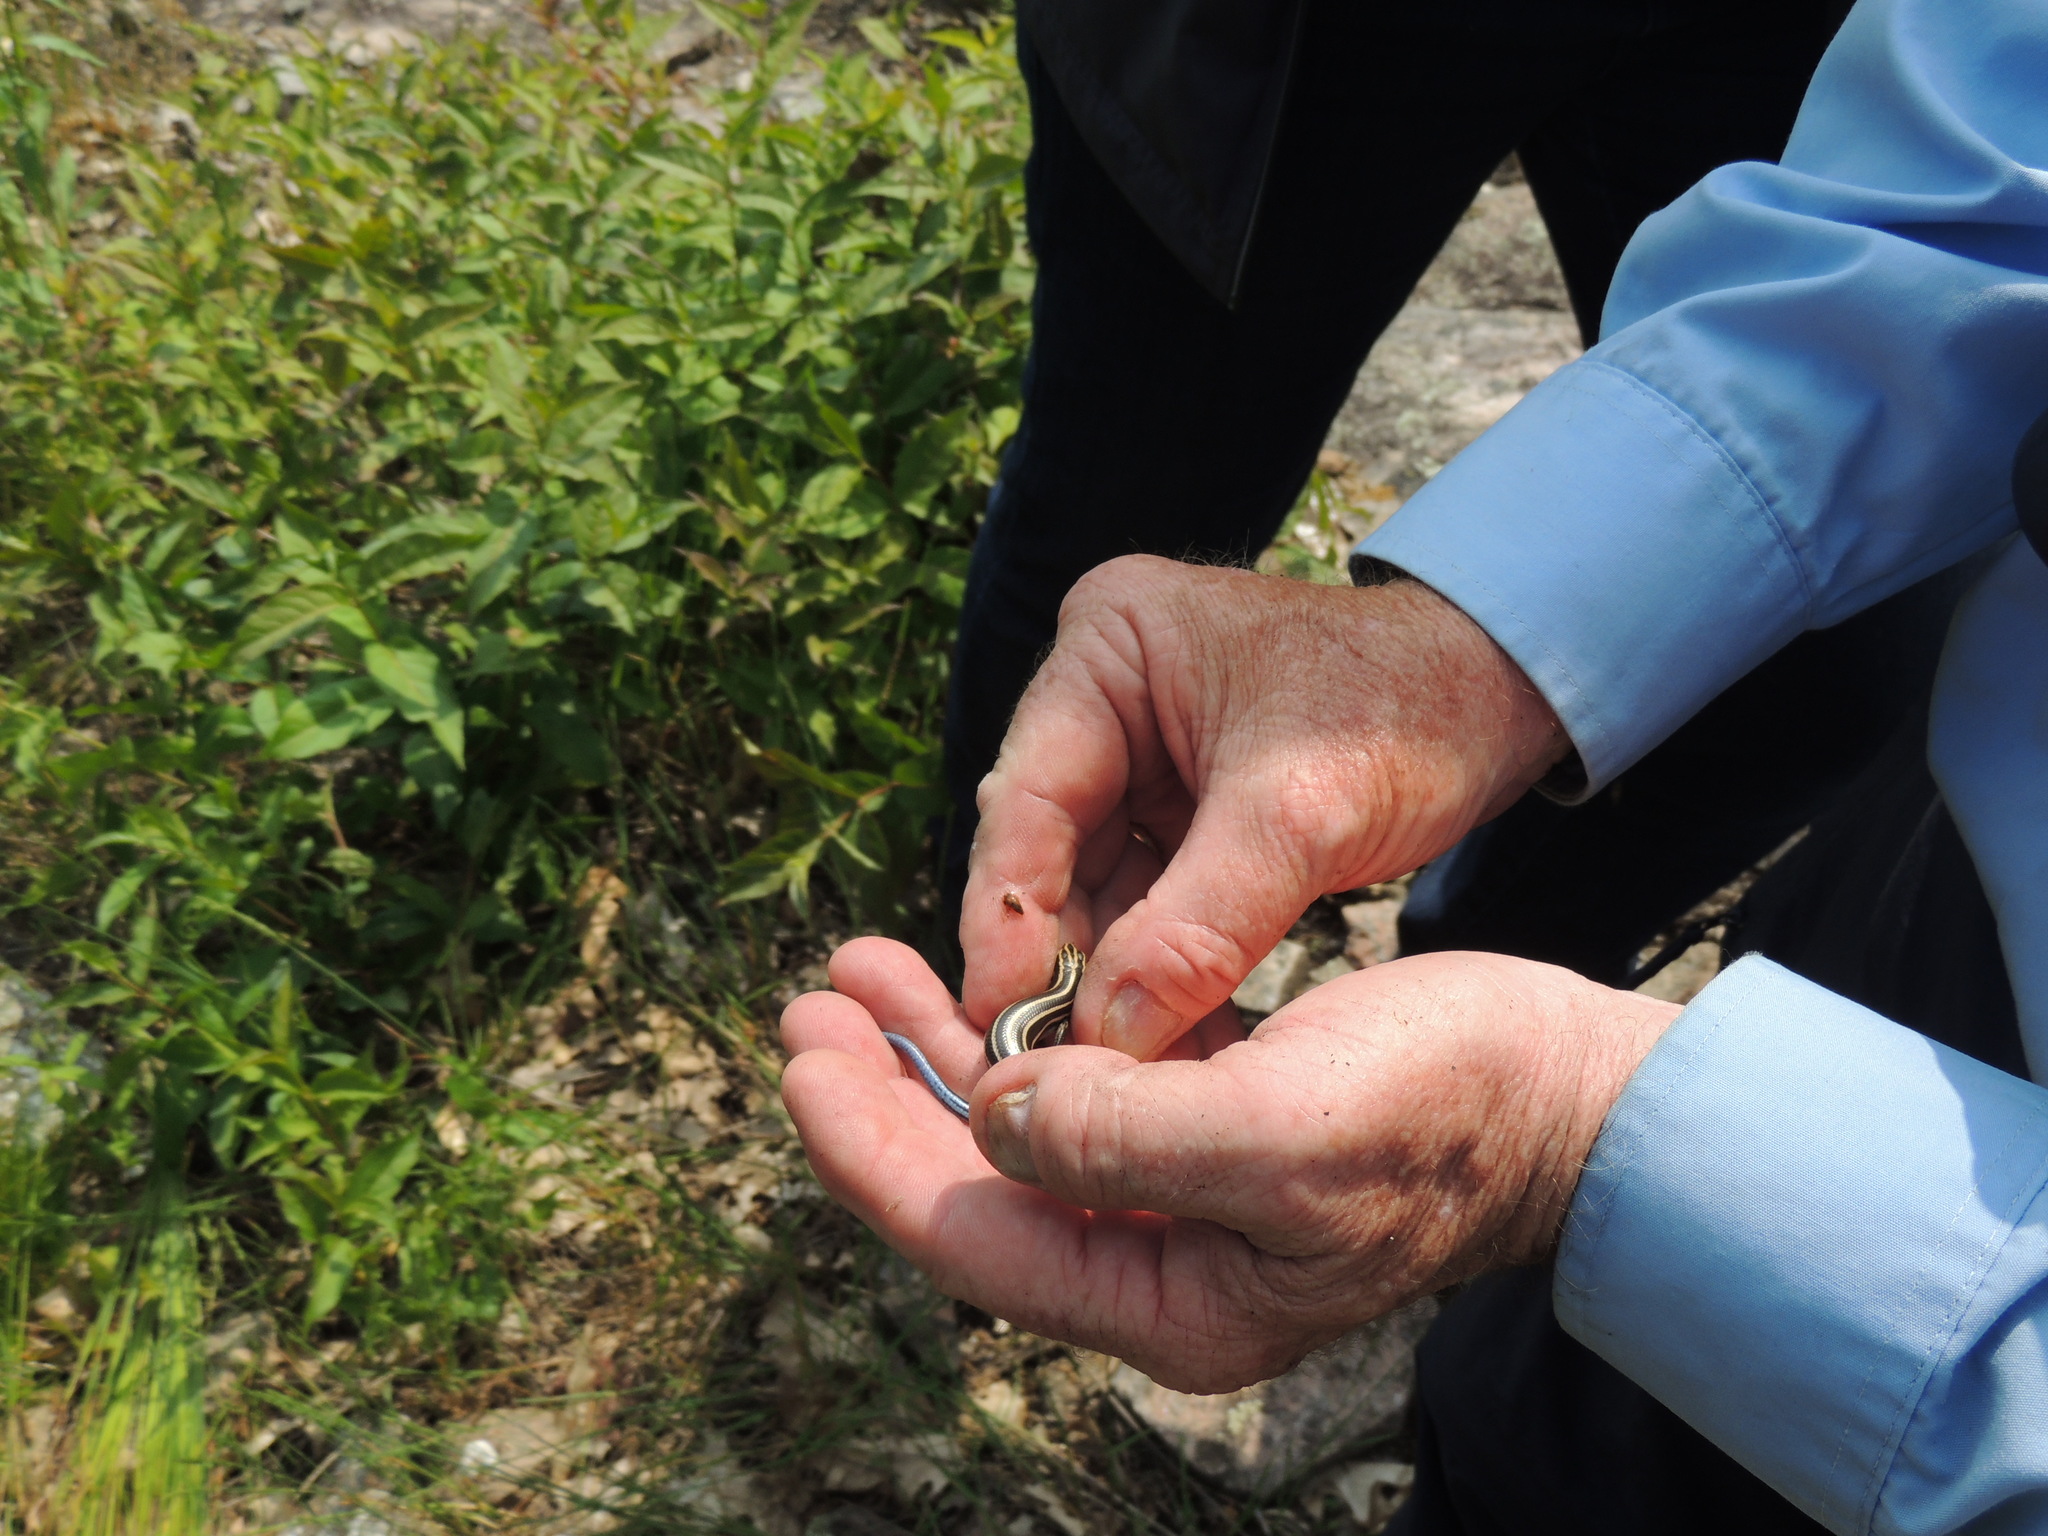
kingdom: Animalia
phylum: Chordata
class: Squamata
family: Scincidae
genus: Plestiodon
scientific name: Plestiodon fasciatus
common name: Five-lined skink
